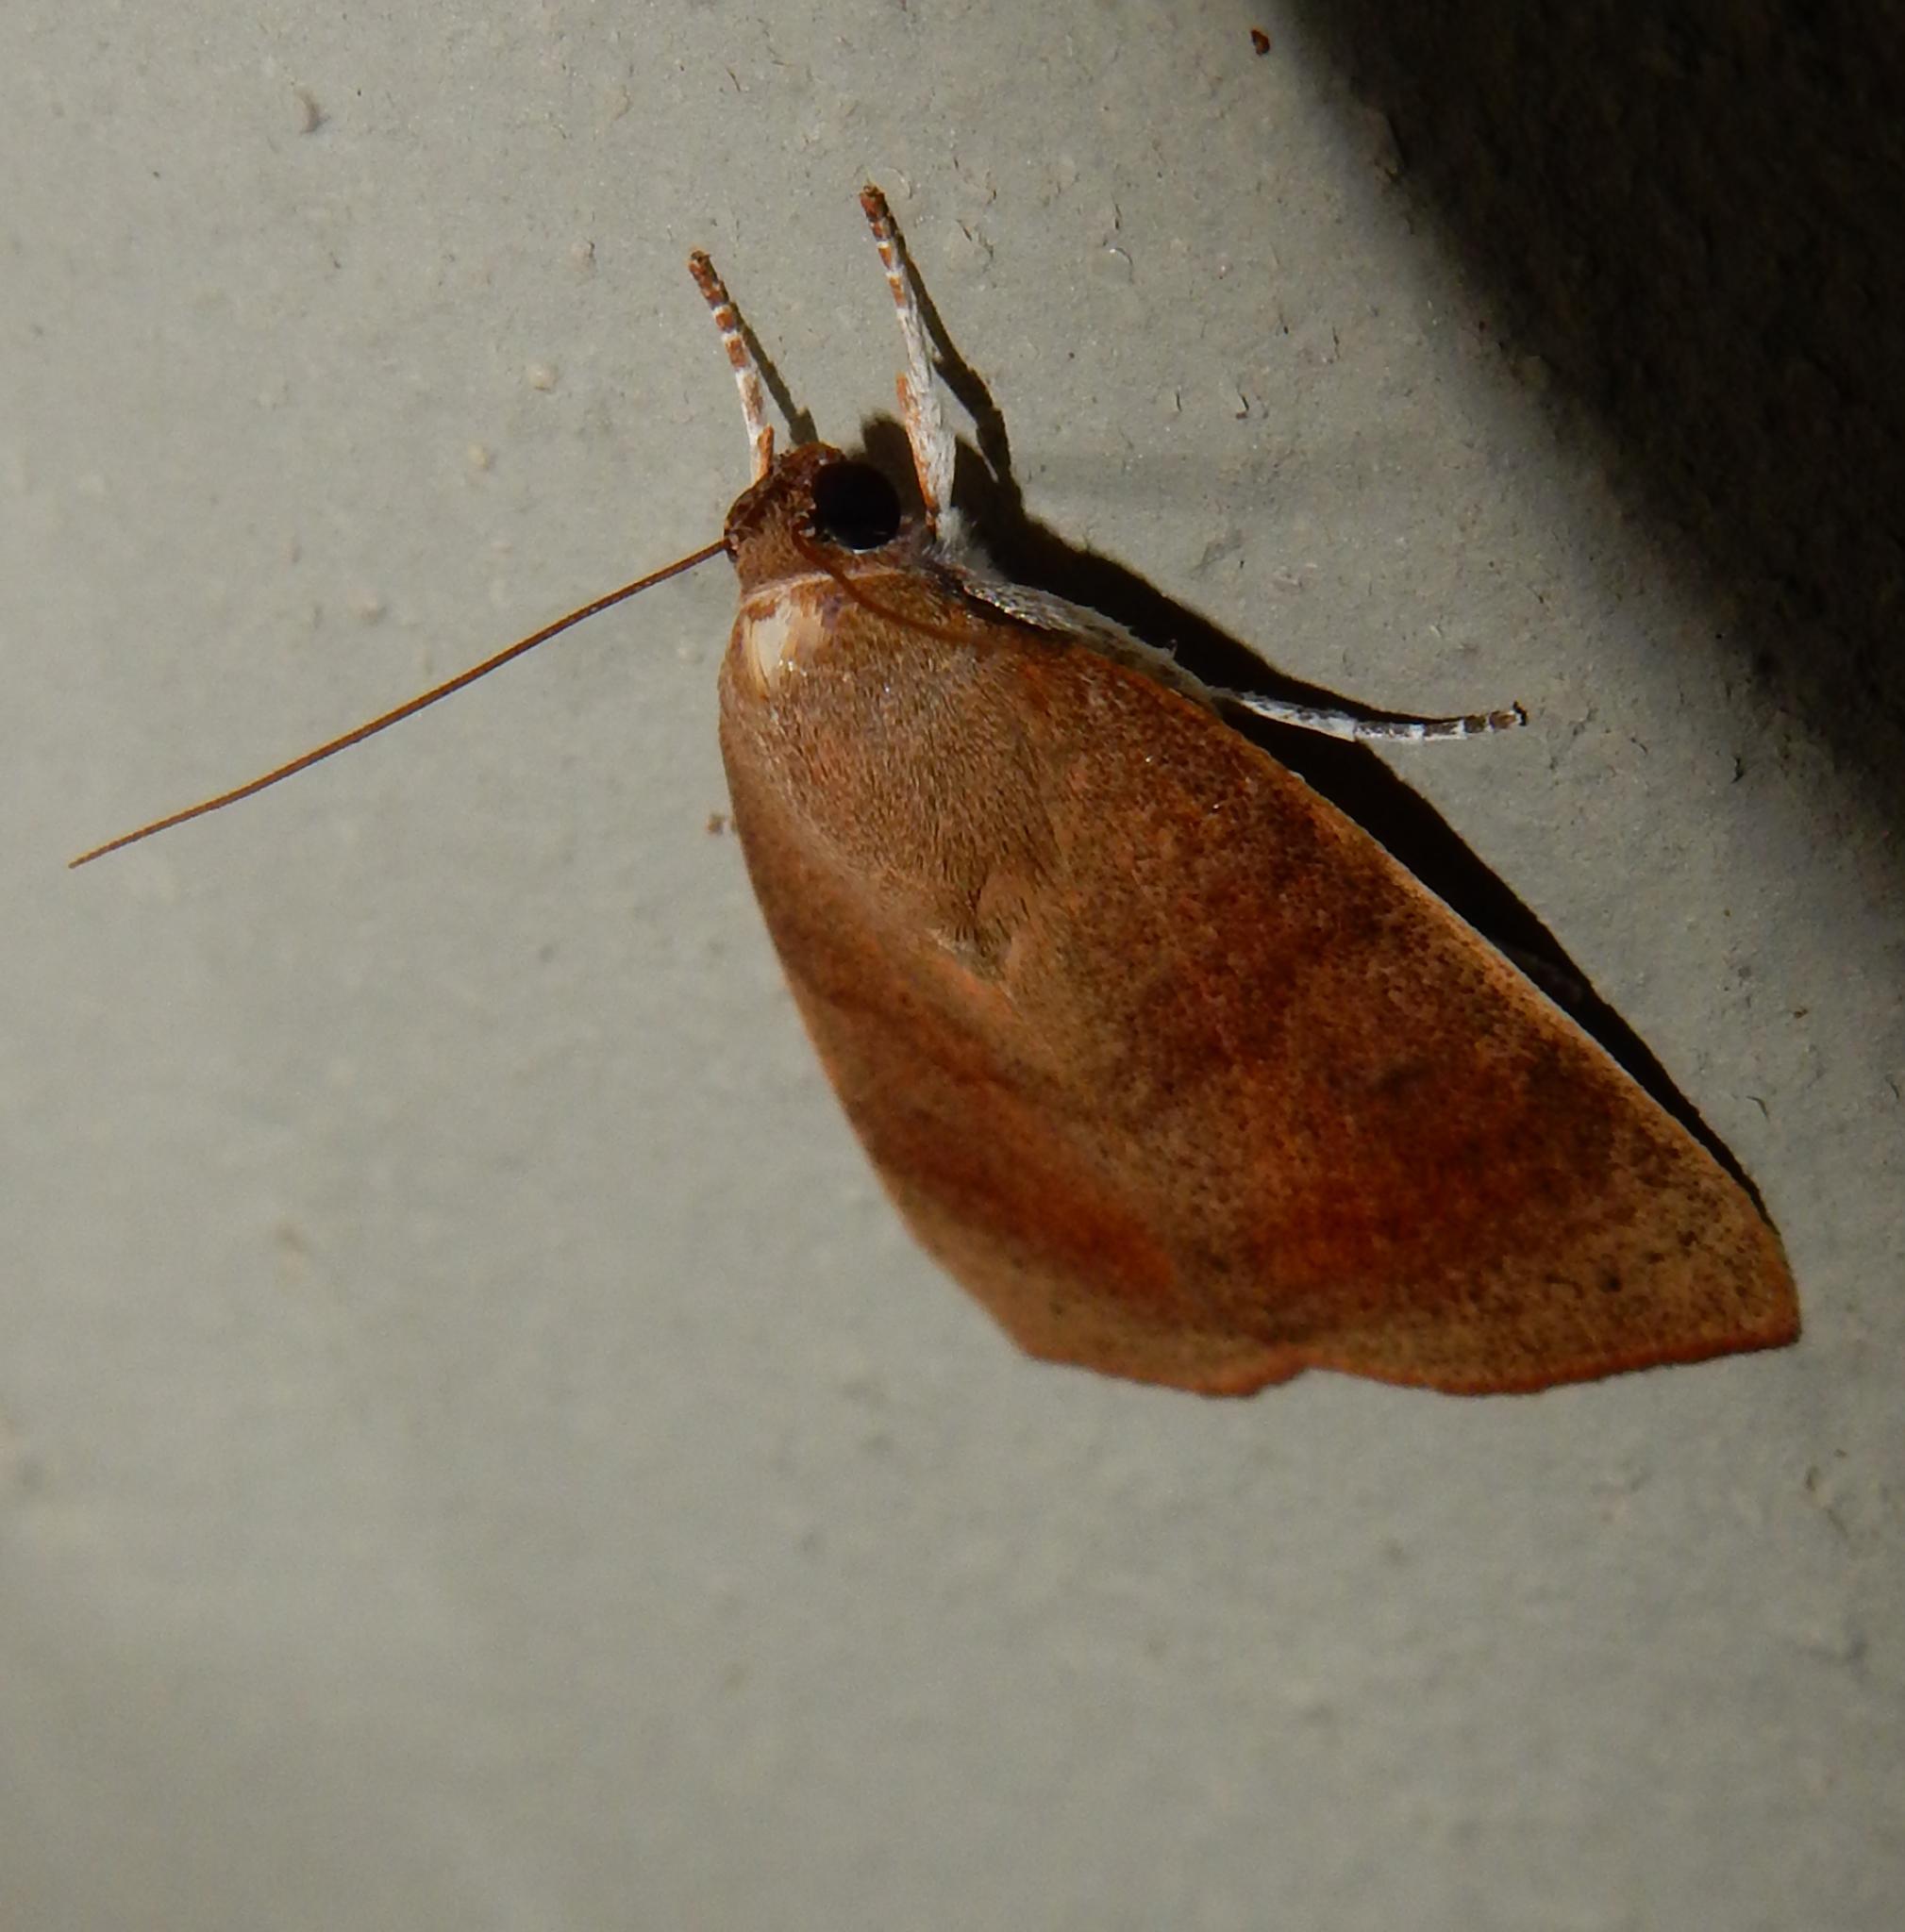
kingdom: Animalia
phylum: Arthropoda
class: Insecta
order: Lepidoptera
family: Nolidae
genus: Maurilia
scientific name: Maurilia arcuata
